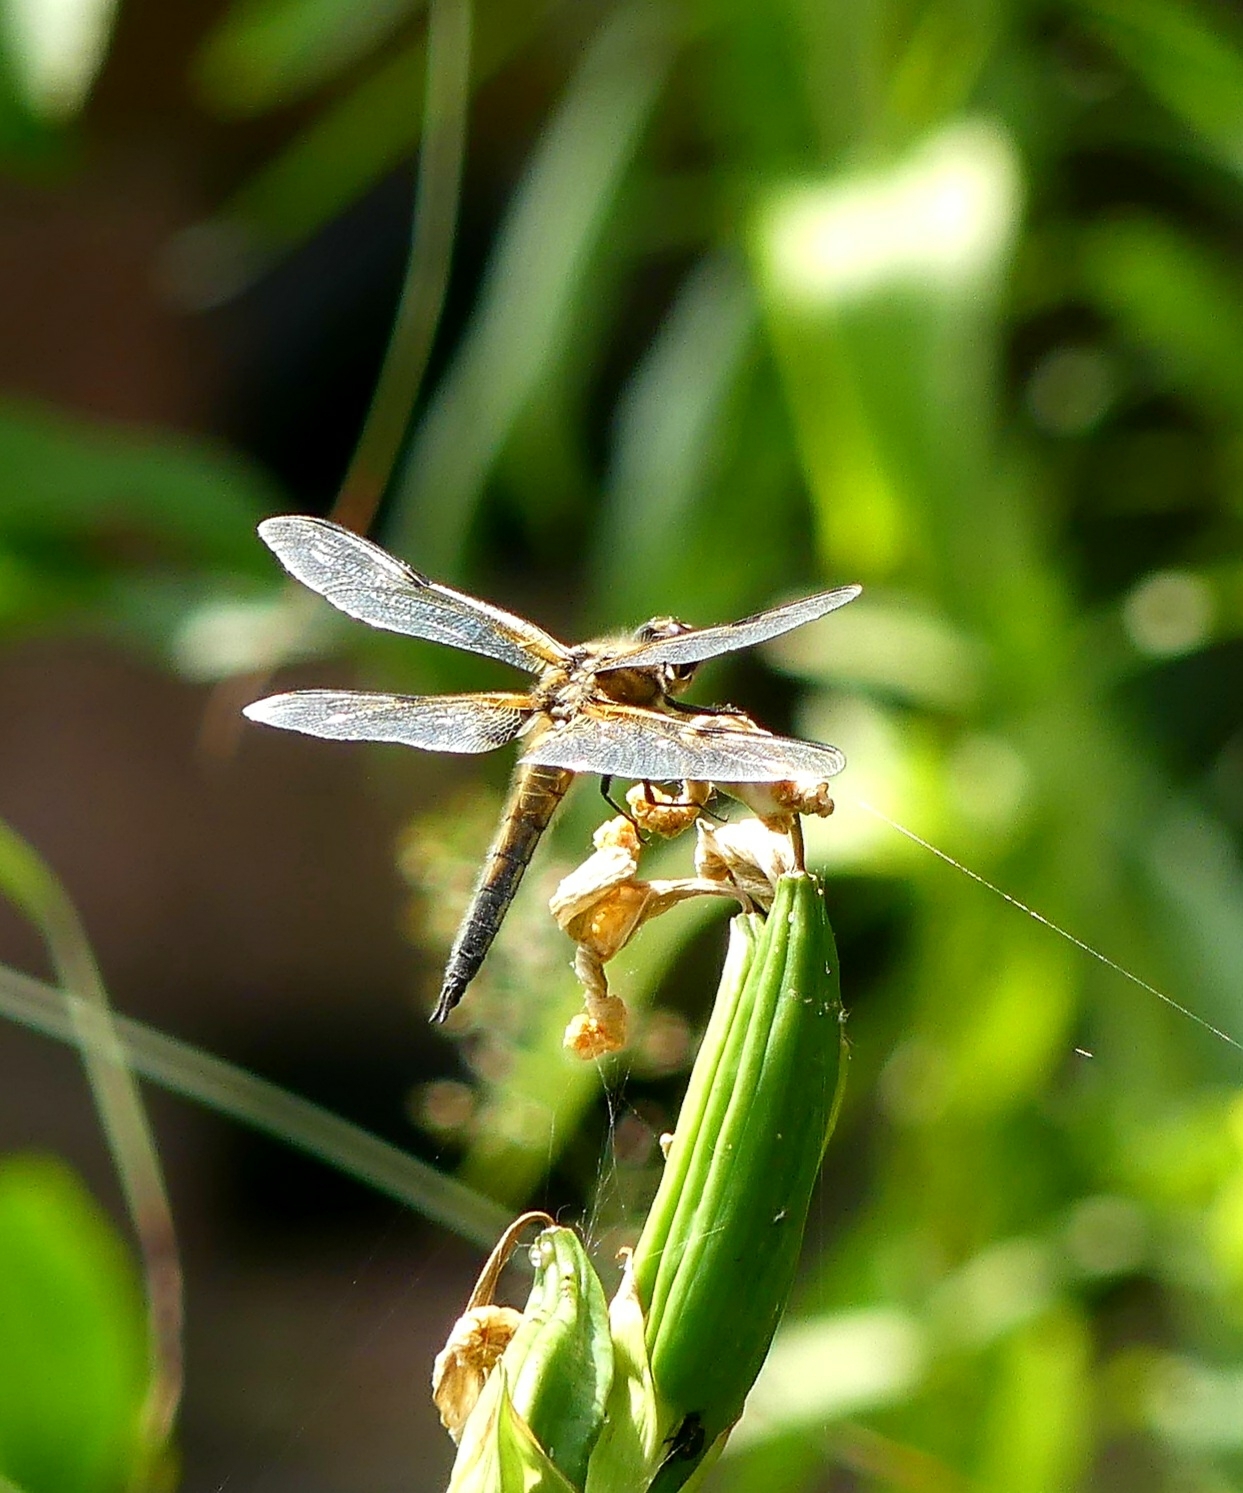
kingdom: Animalia
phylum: Arthropoda
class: Insecta
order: Odonata
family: Libellulidae
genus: Libellula
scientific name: Libellula quadrimaculata
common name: Four-spotted chaser
